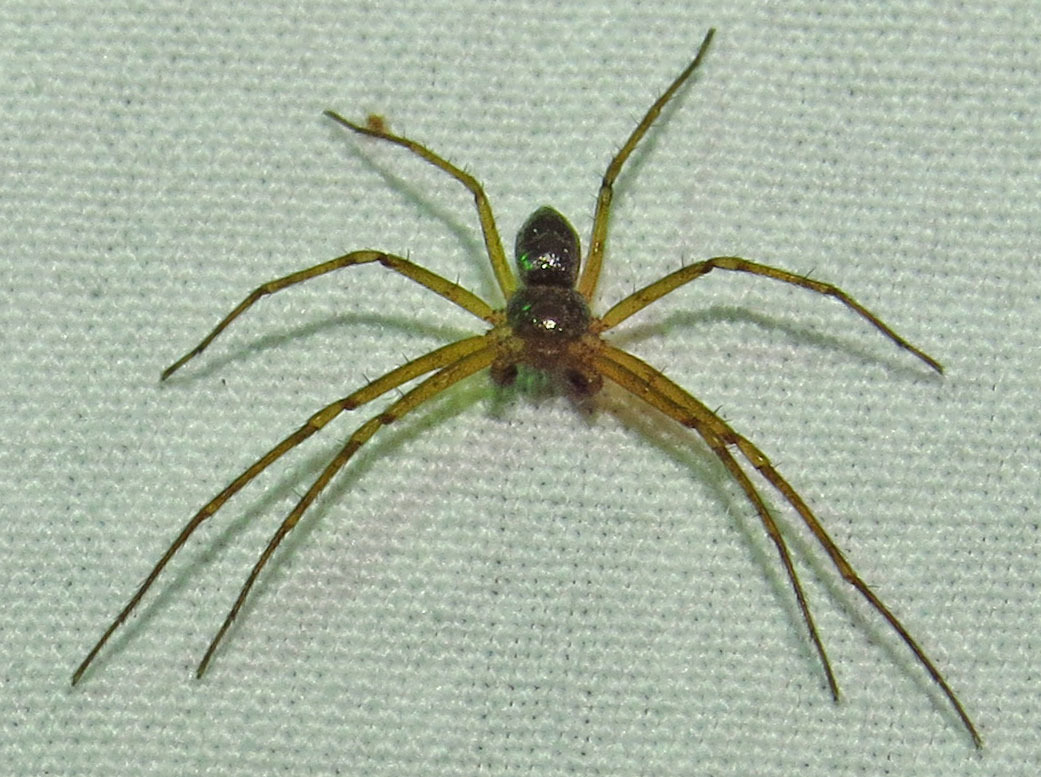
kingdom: Animalia
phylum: Arthropoda
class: Arachnida
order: Araneae
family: Philodromidae
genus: Philodromus
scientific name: Philodromus marxi
